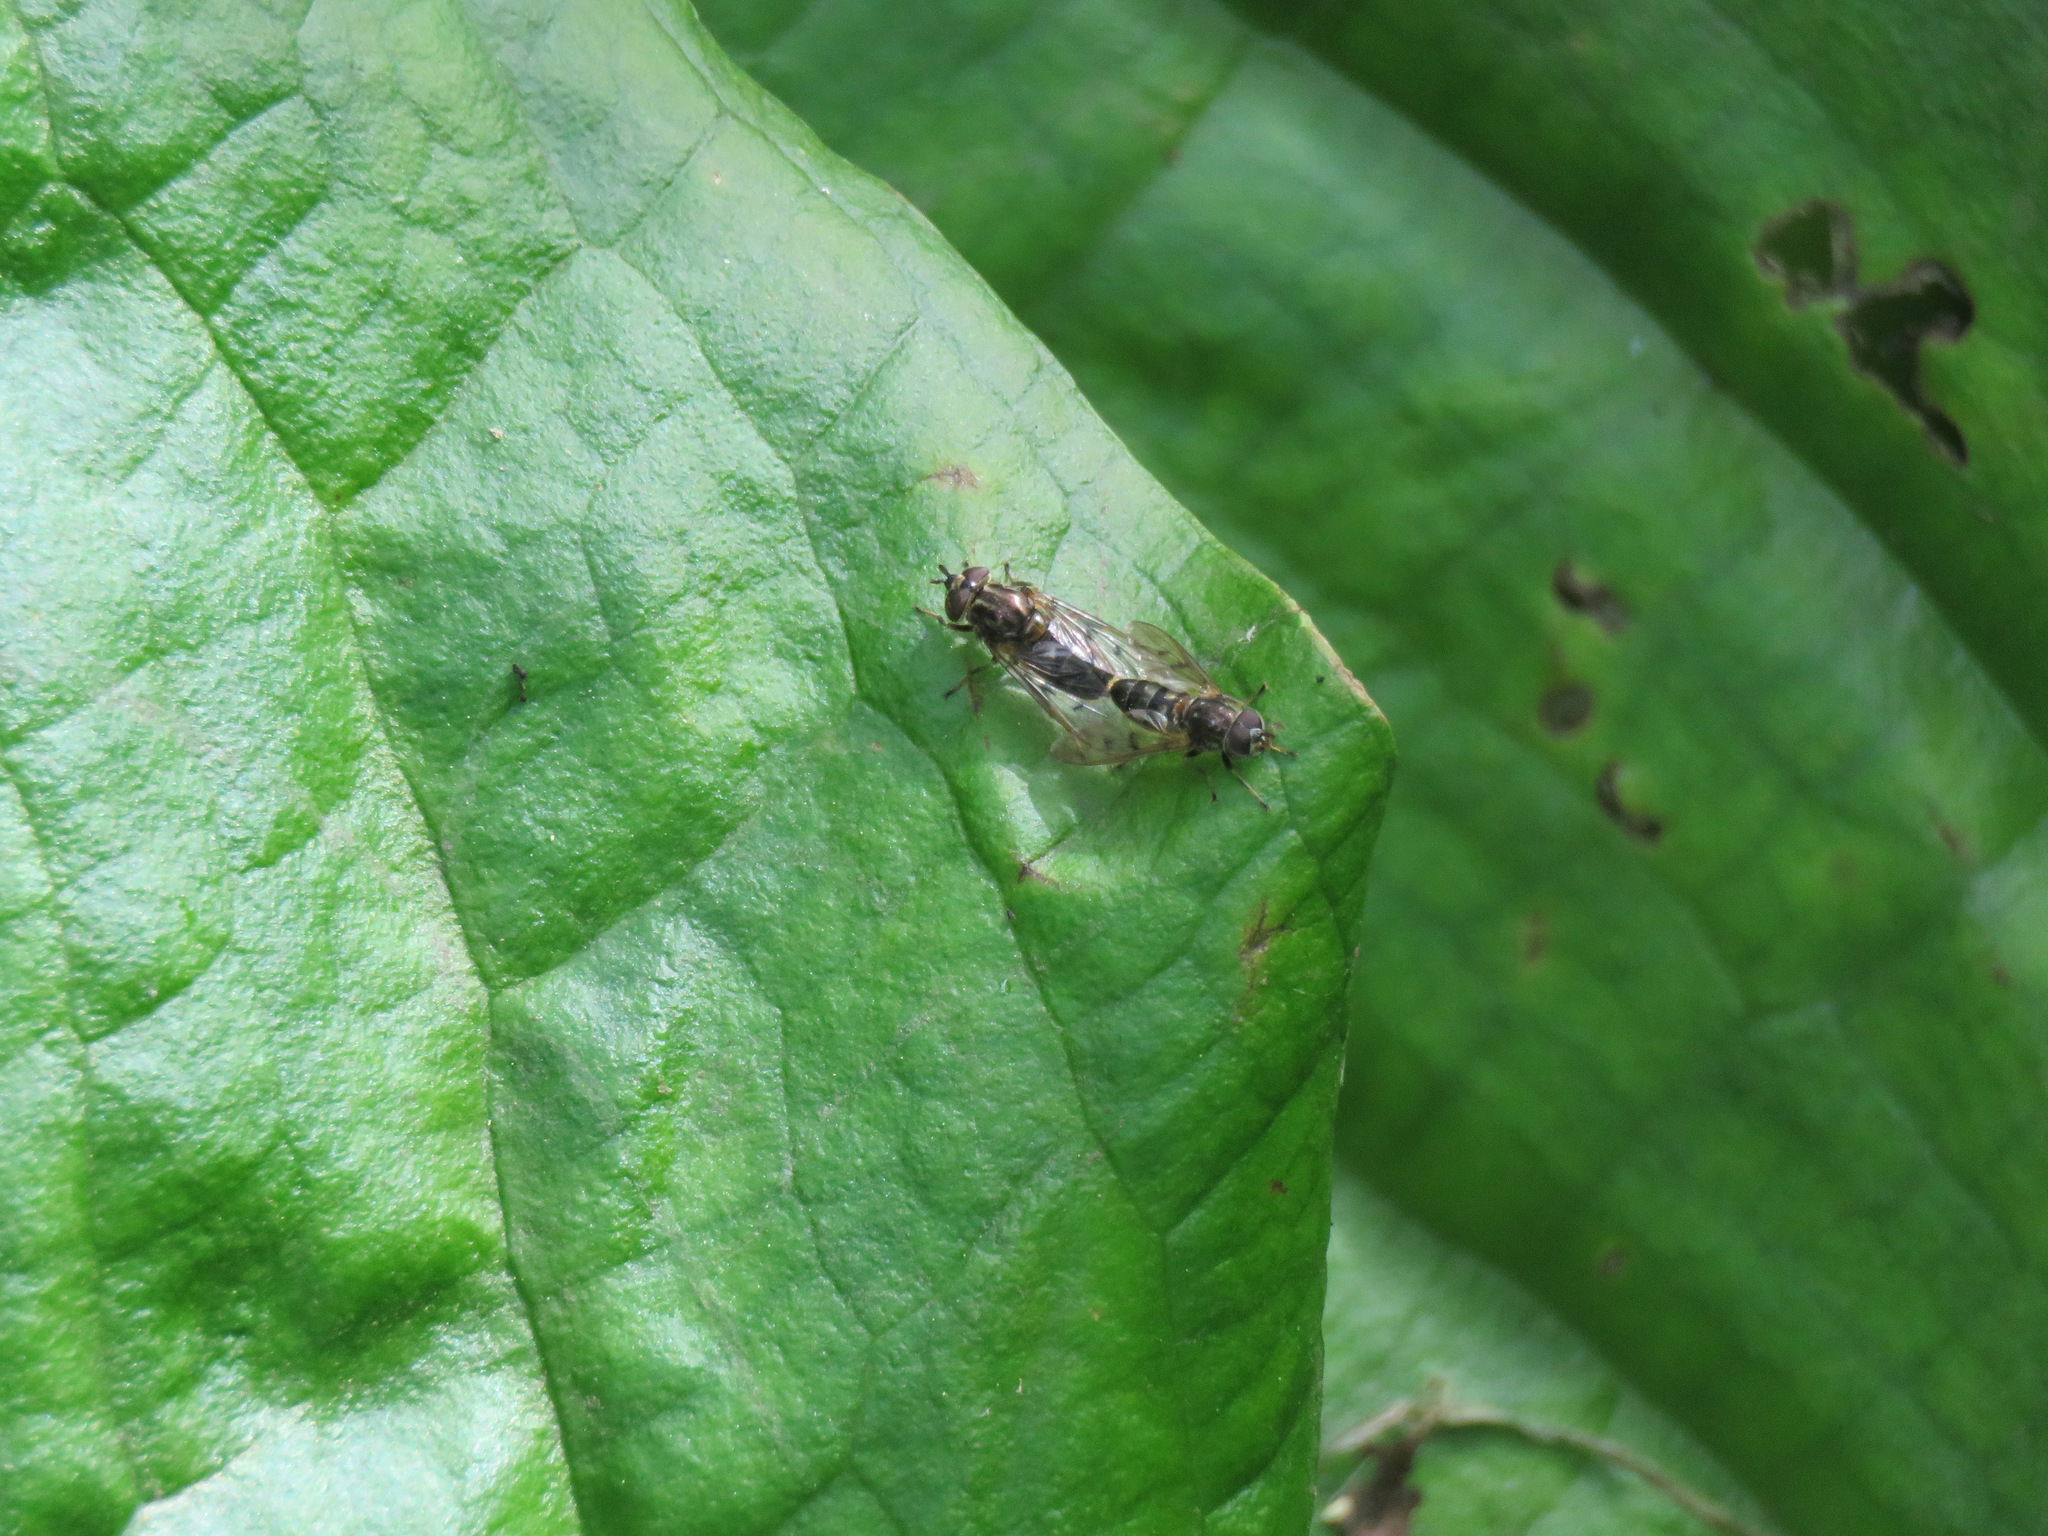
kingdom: Animalia
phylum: Arthropoda
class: Insecta
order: Diptera
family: Syrphidae
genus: Ferdinandea
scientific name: Ferdinandea buccata
